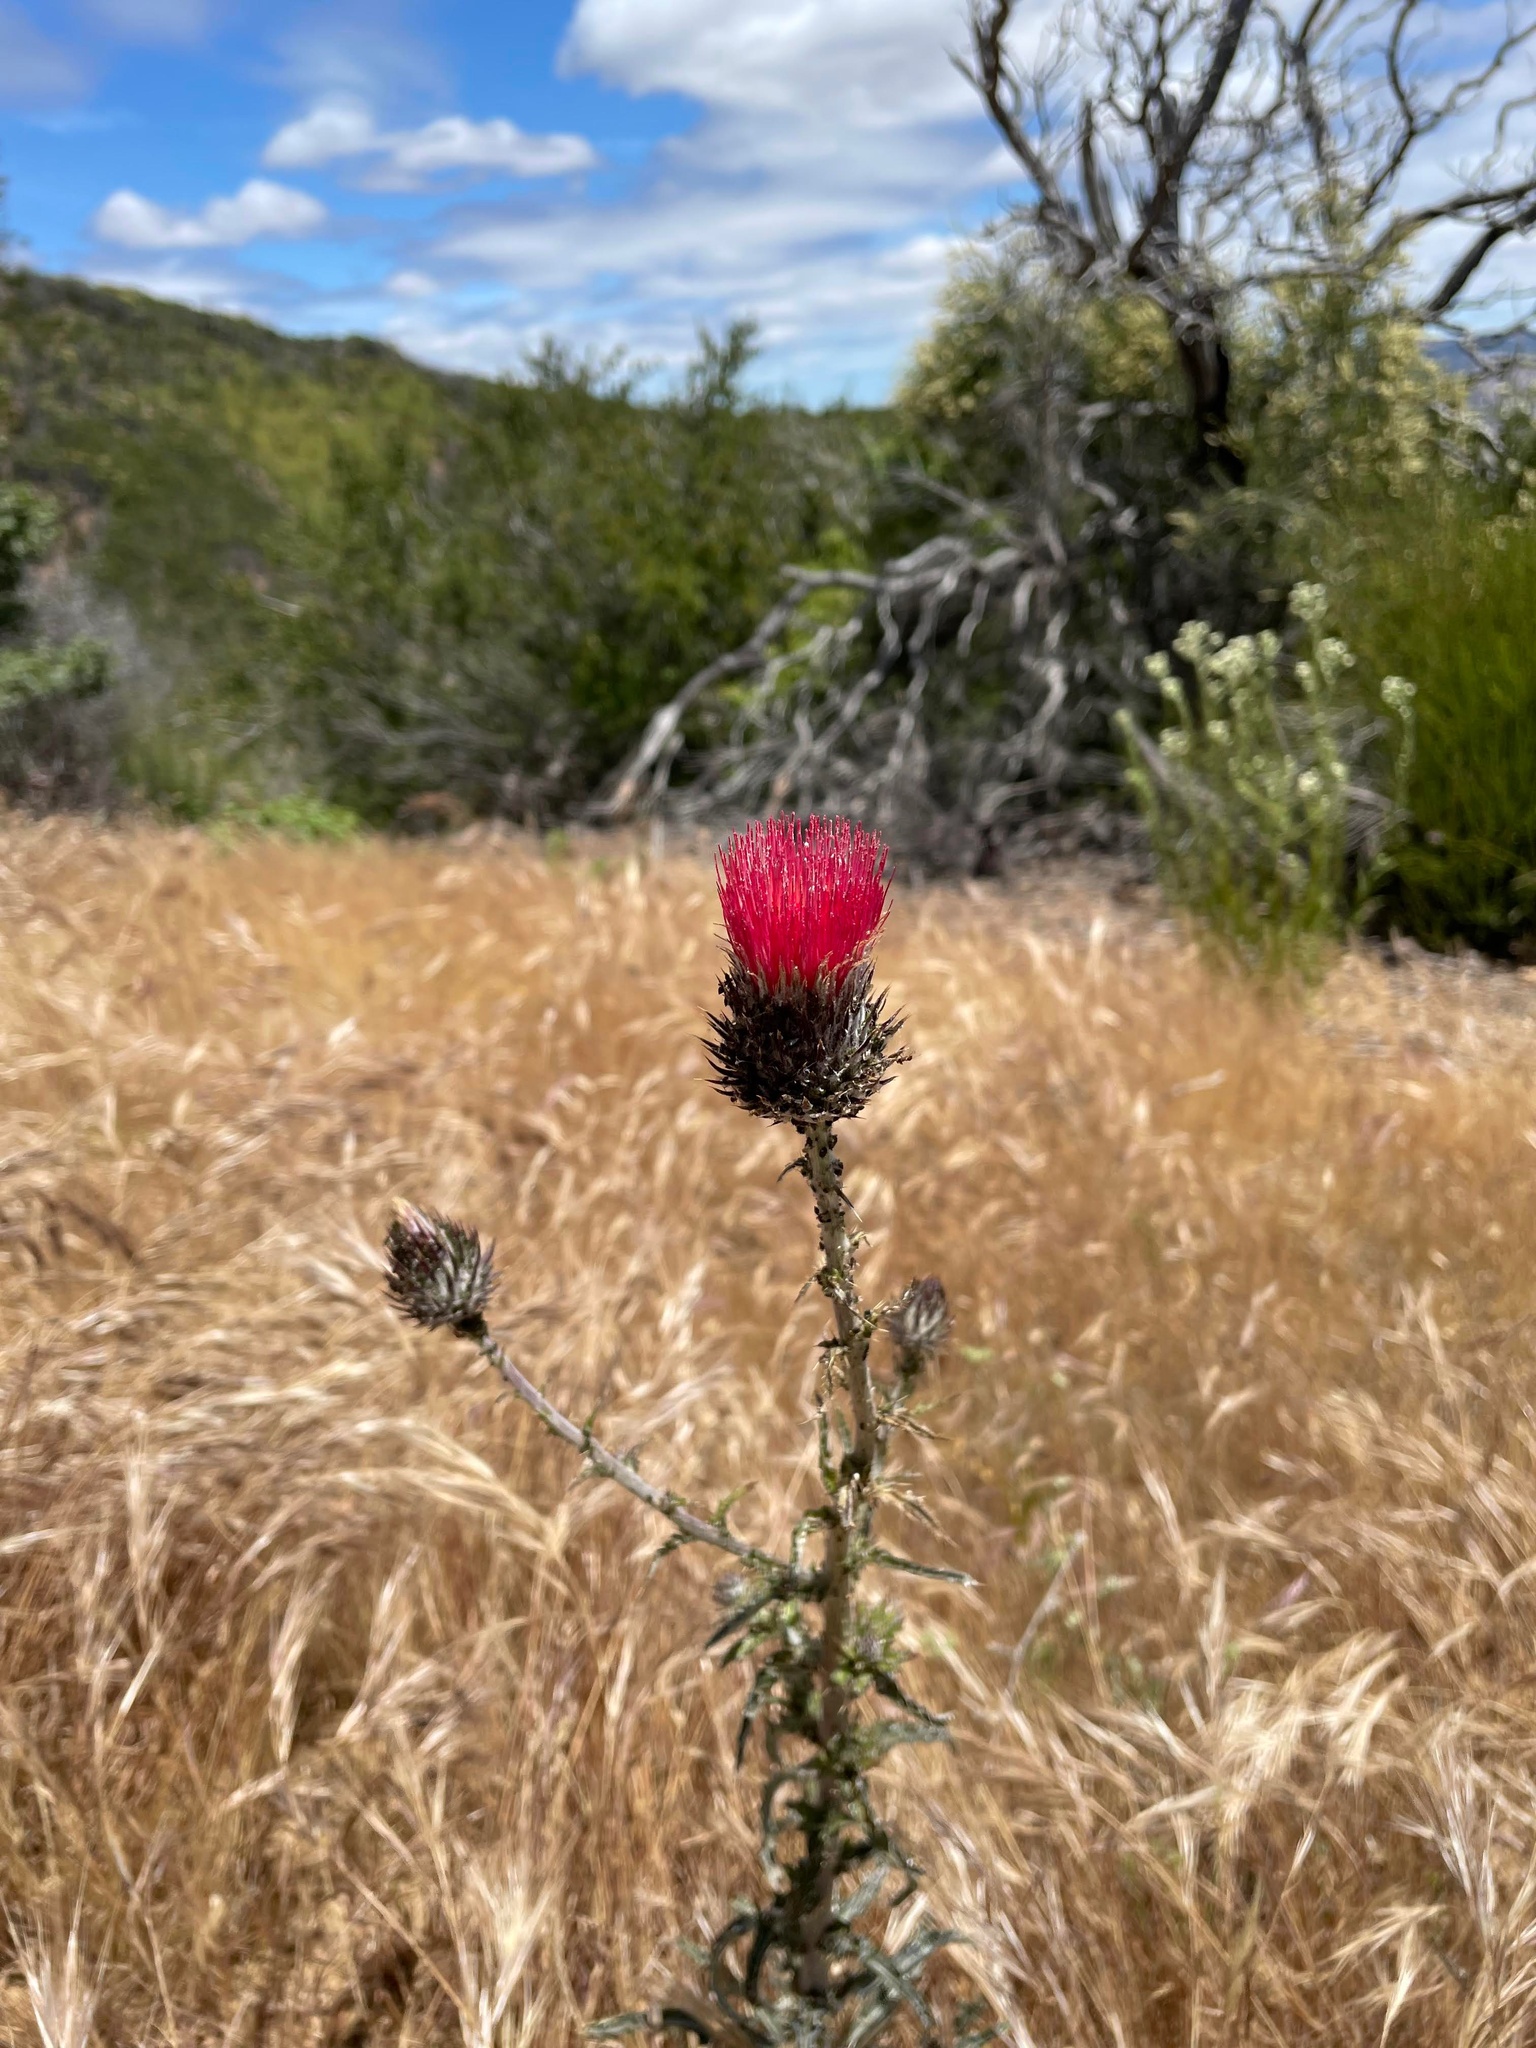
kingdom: Plantae
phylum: Tracheophyta
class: Magnoliopsida
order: Asterales
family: Asteraceae
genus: Cirsium
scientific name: Cirsium occidentale
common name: Western thistle
